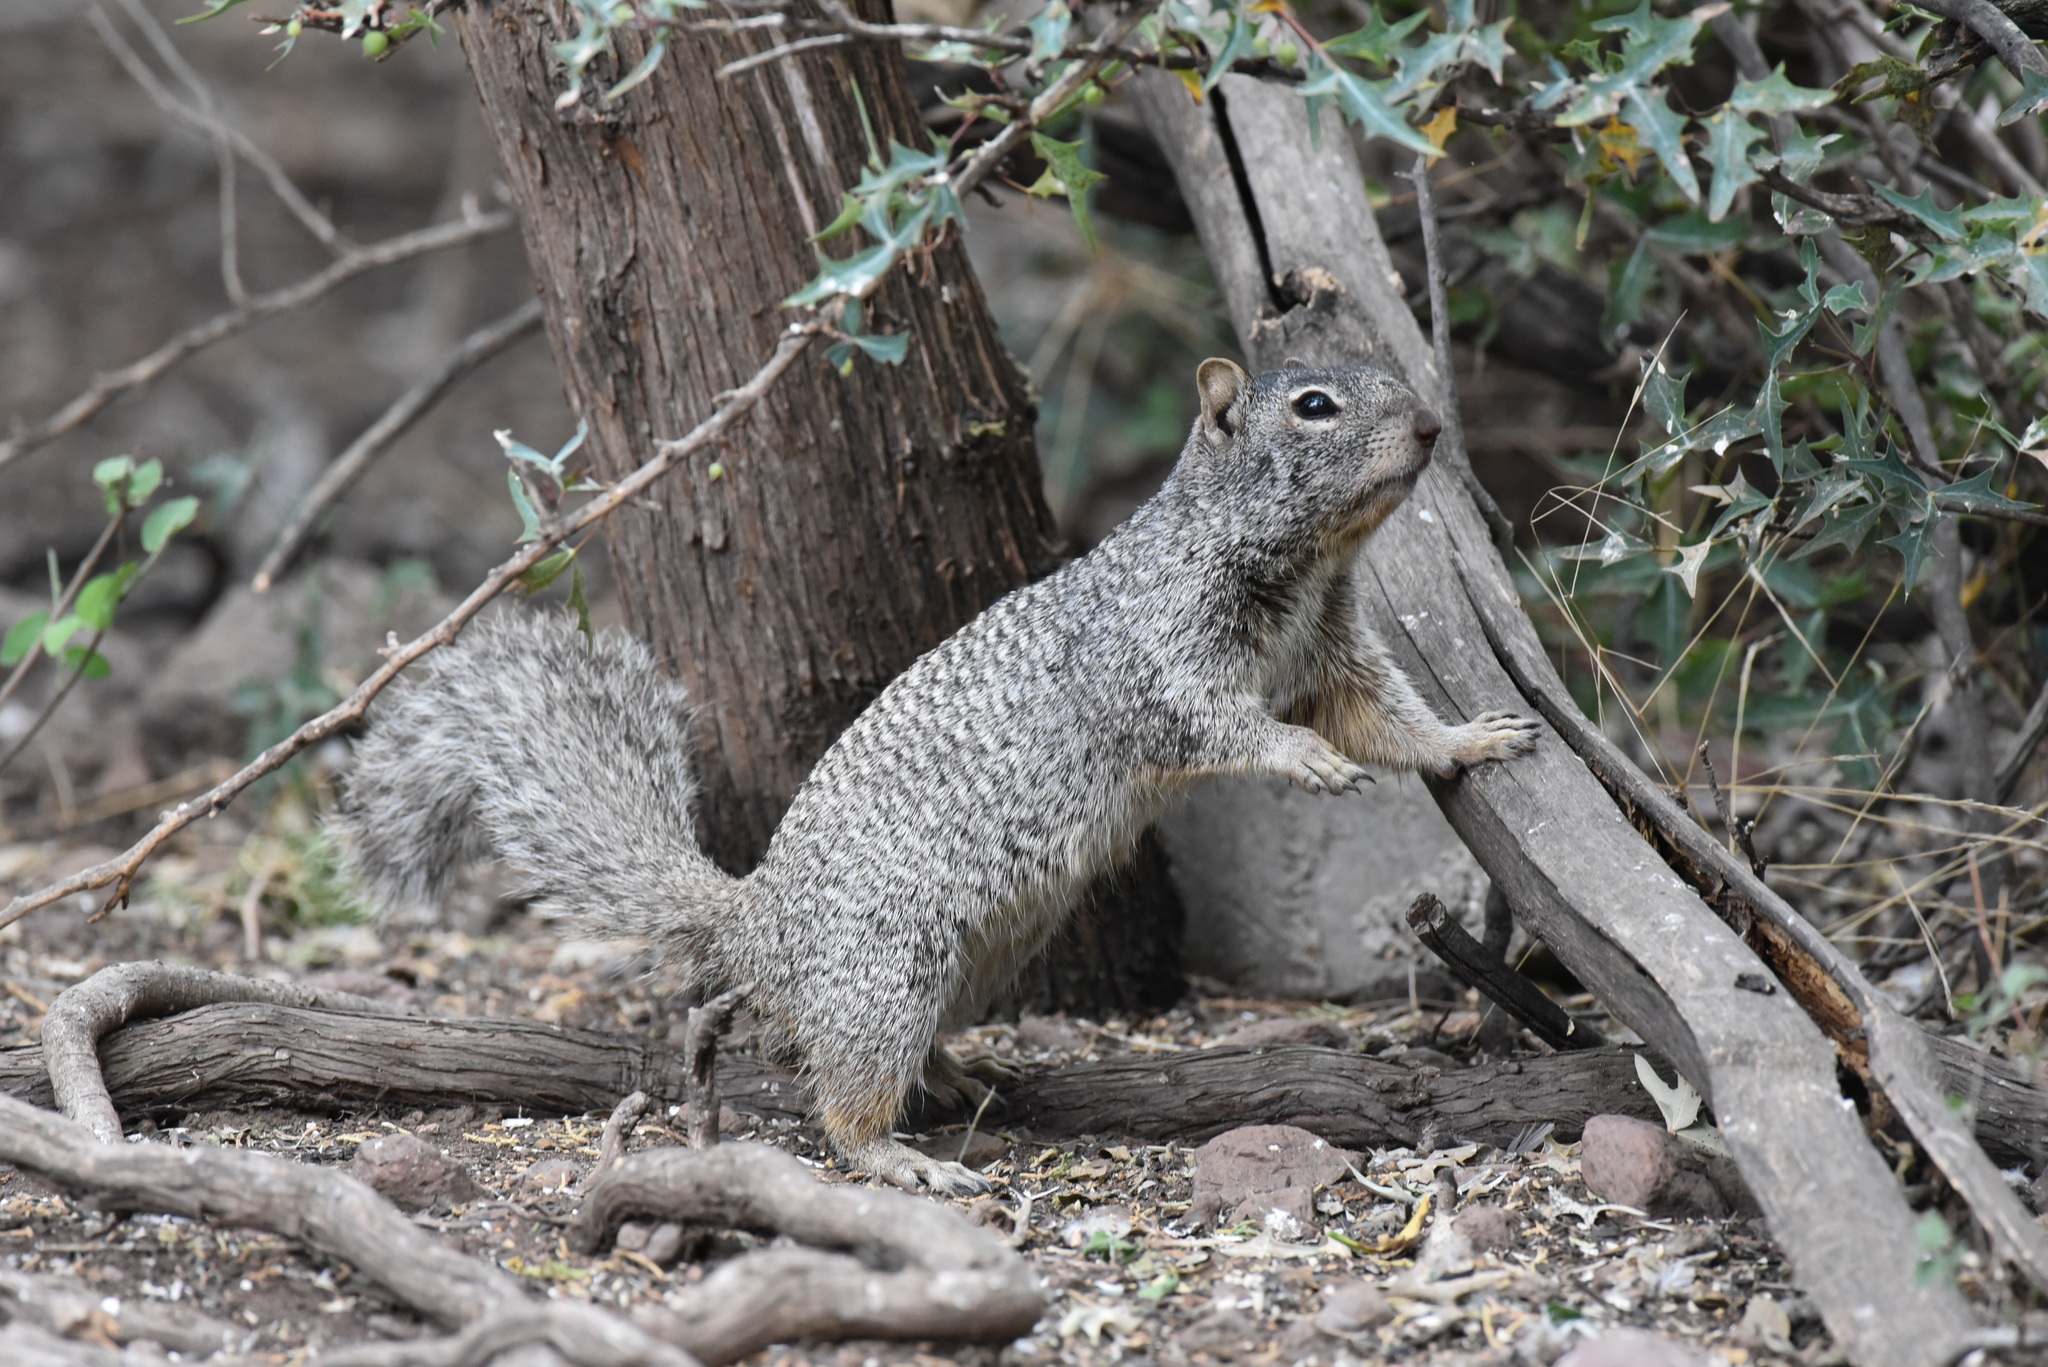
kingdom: Animalia
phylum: Chordata
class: Mammalia
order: Rodentia
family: Sciuridae
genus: Otospermophilus
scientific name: Otospermophilus variegatus
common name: Rock squirrel
